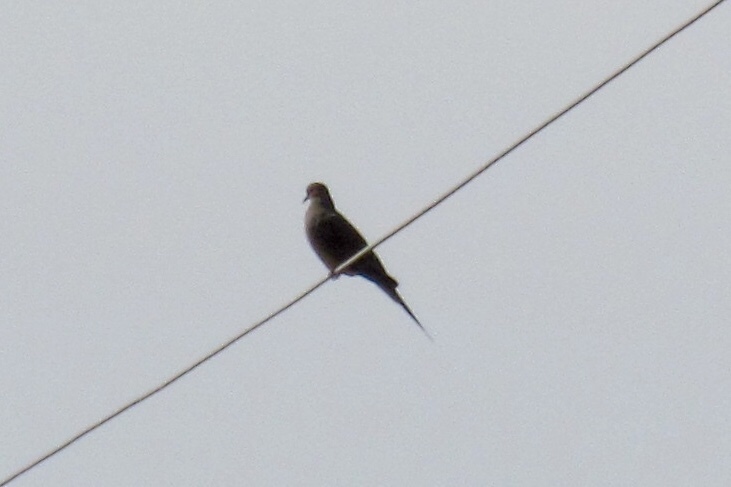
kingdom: Animalia
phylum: Chordata
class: Aves
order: Columbiformes
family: Columbidae
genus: Zenaida
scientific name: Zenaida macroura
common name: Mourning dove
